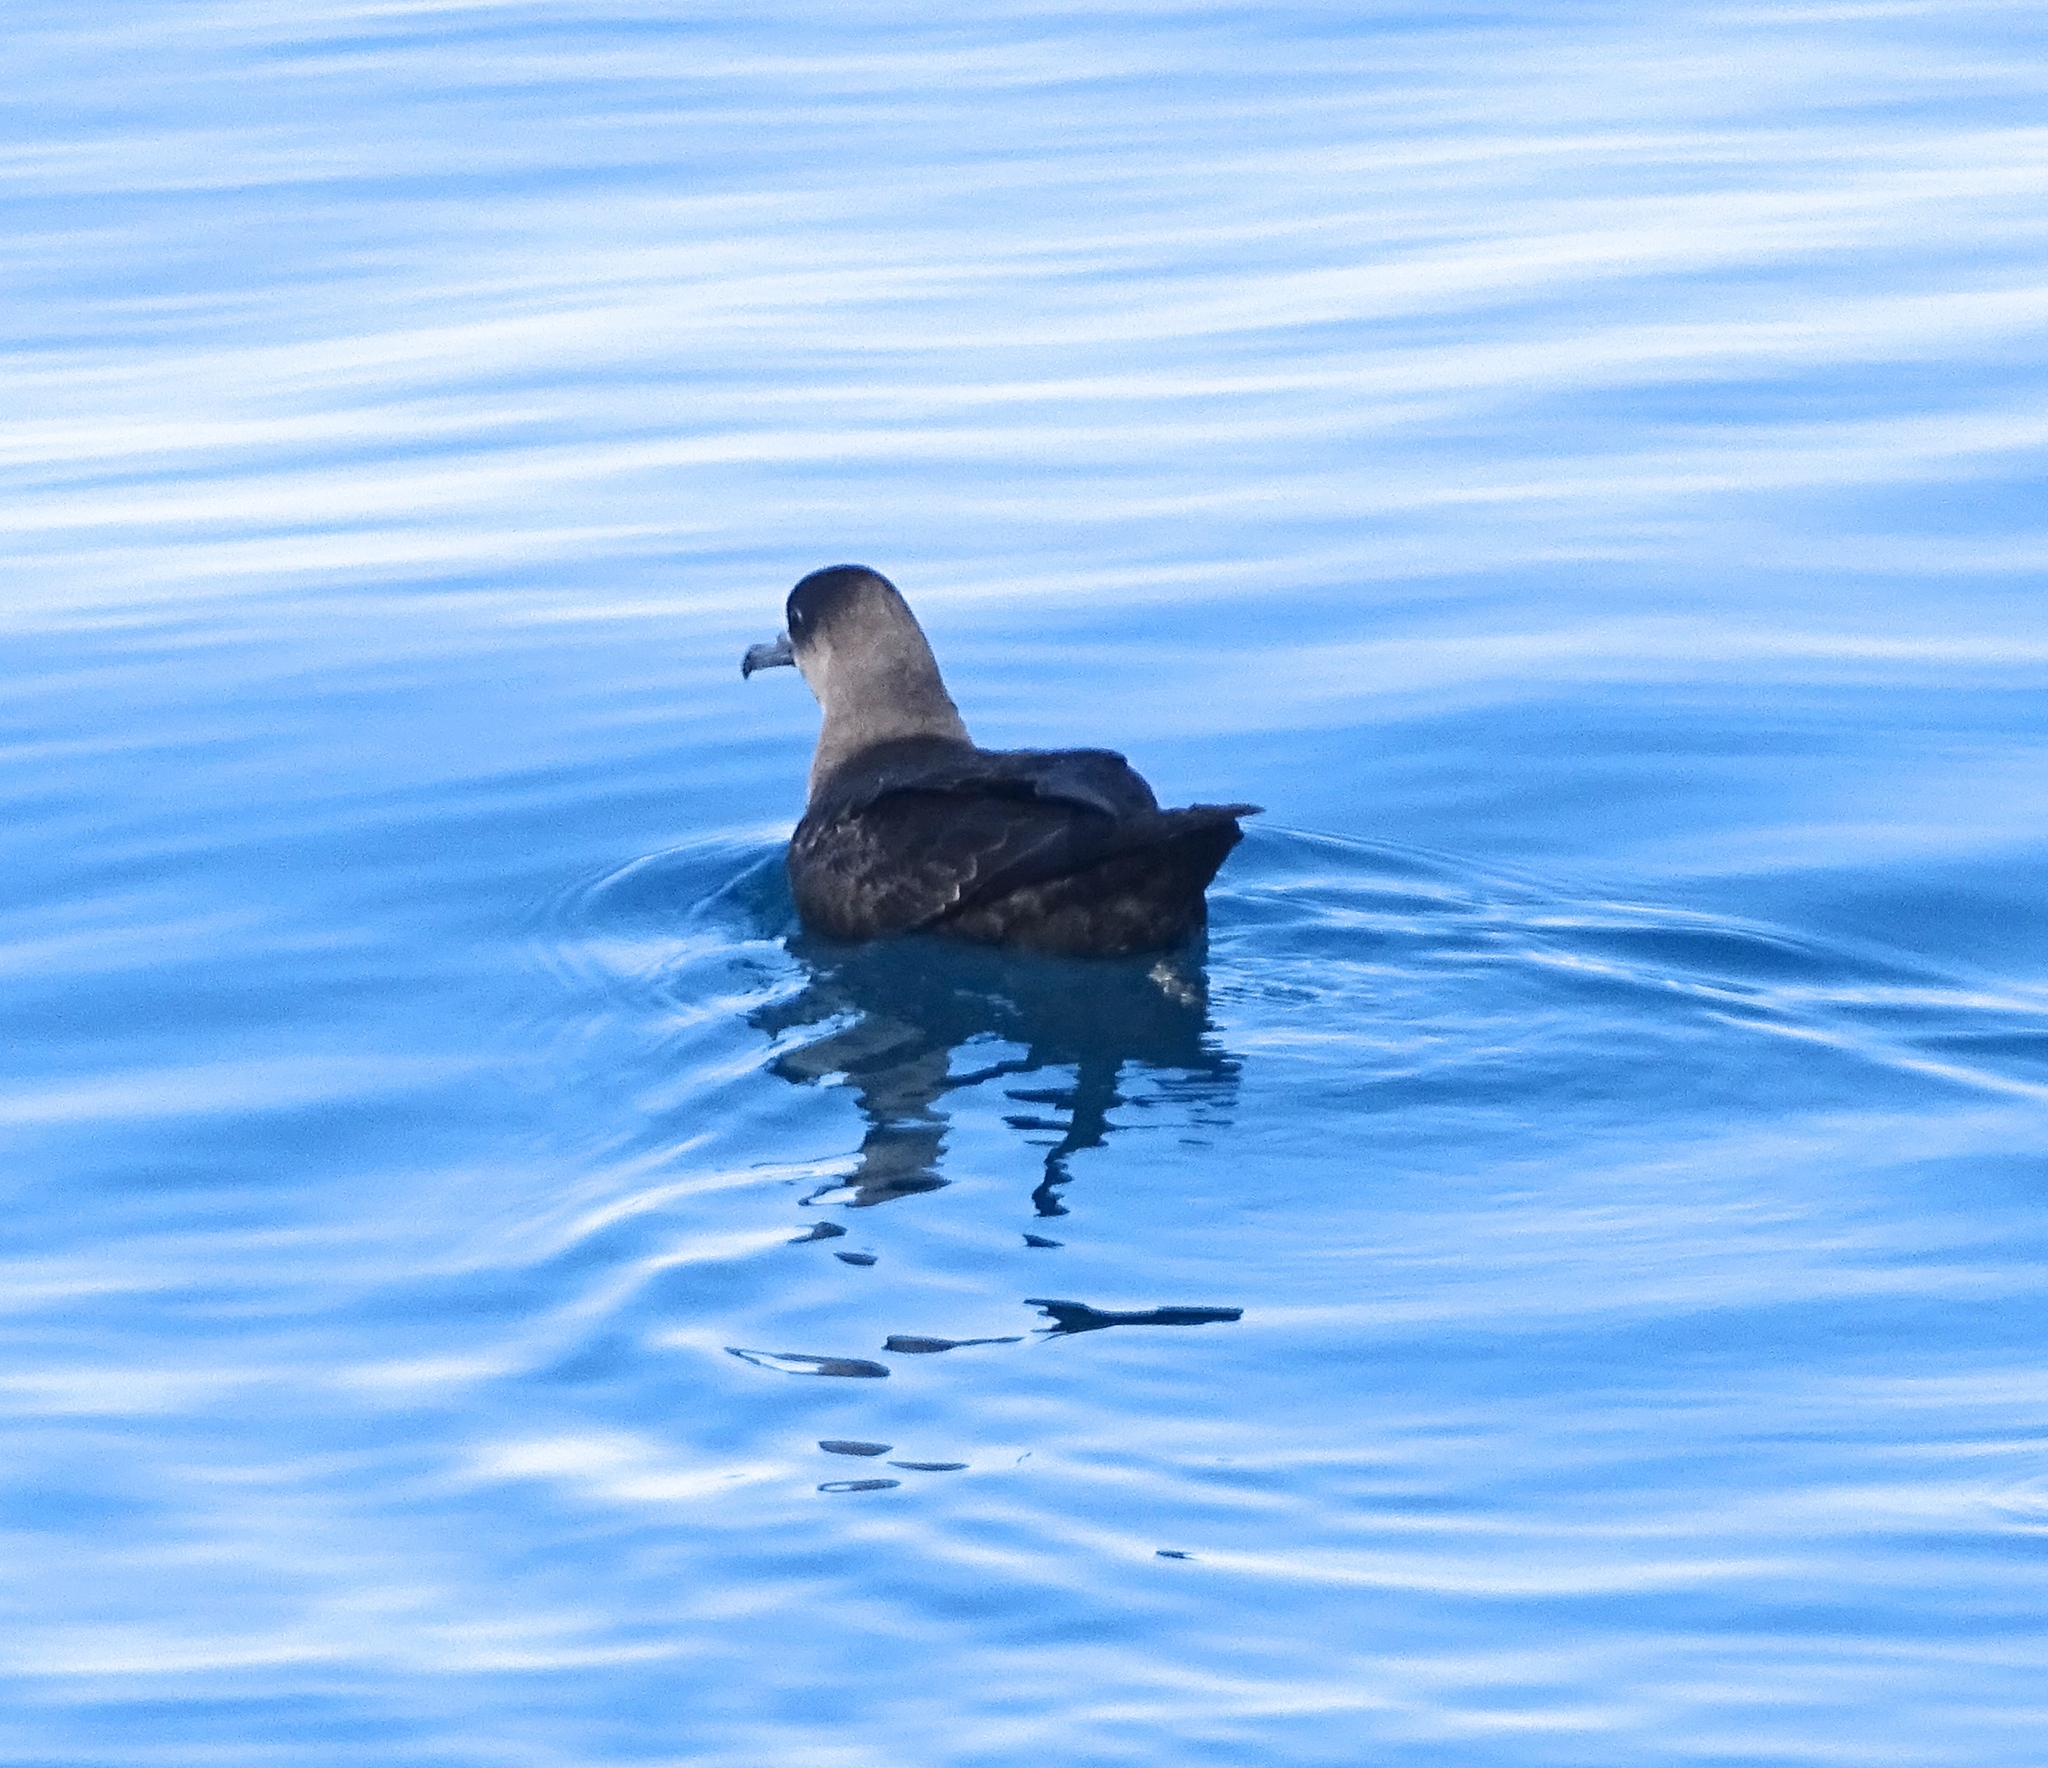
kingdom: Animalia
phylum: Chordata
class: Aves
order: Procellariiformes
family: Procellariidae
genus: Puffinus
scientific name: Puffinus griseus
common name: Sooty shearwater
